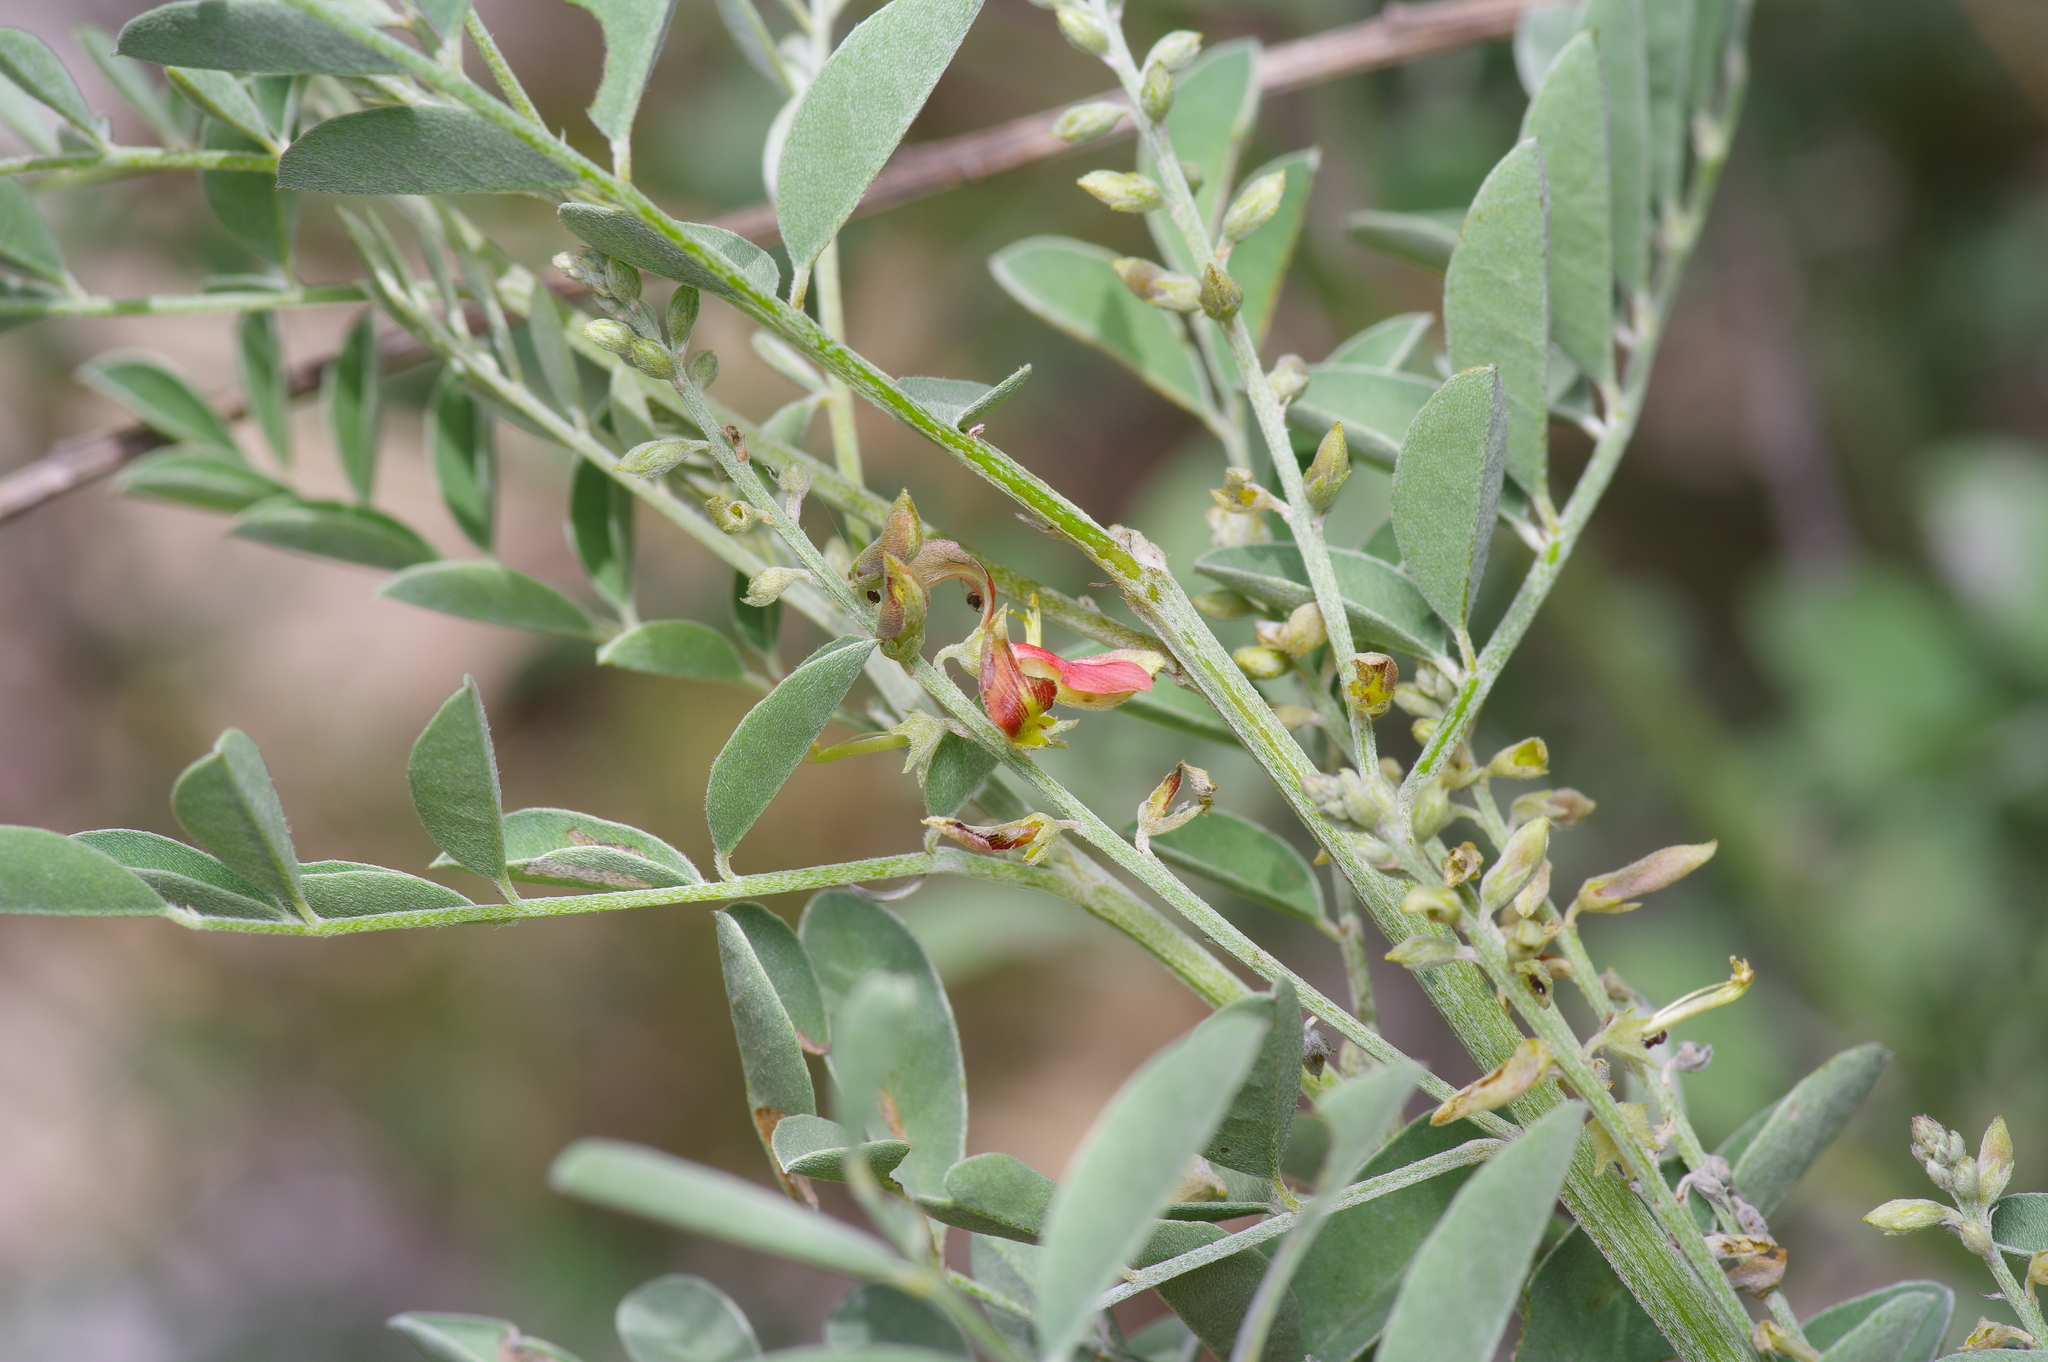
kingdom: Plantae
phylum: Tracheophyta
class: Magnoliopsida
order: Fabales
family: Fabaceae
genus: Indigofera
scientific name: Indigofera lindheimeriana
